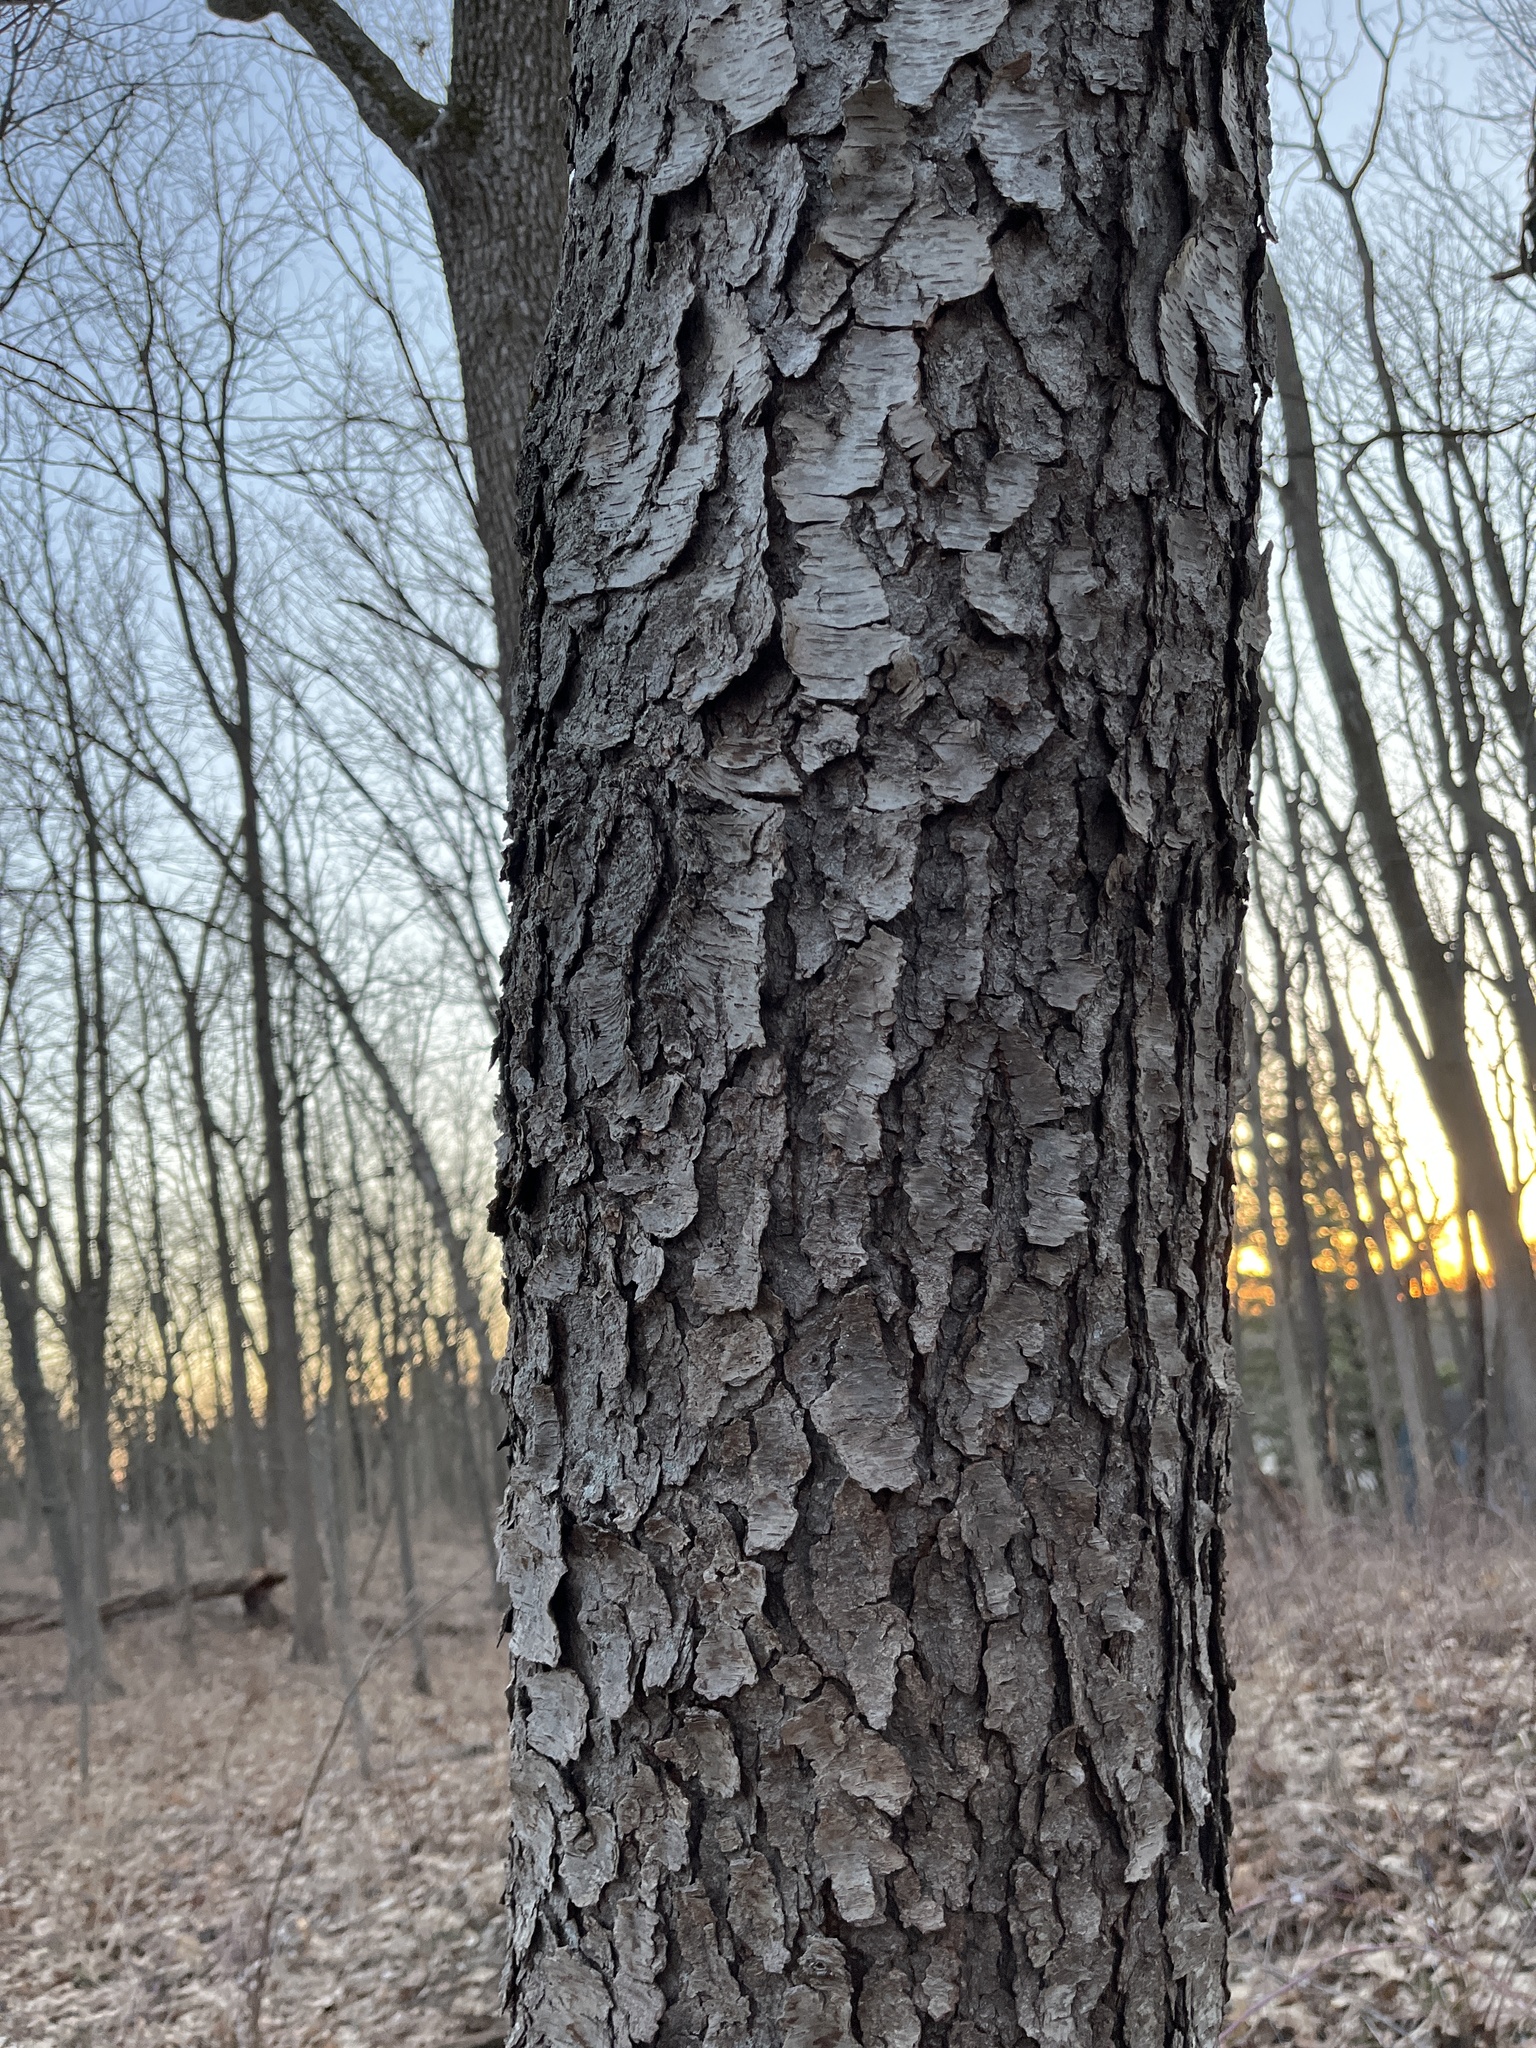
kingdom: Plantae
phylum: Tracheophyta
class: Magnoliopsida
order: Rosales
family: Rosaceae
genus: Prunus
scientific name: Prunus serotina
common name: Black cherry
